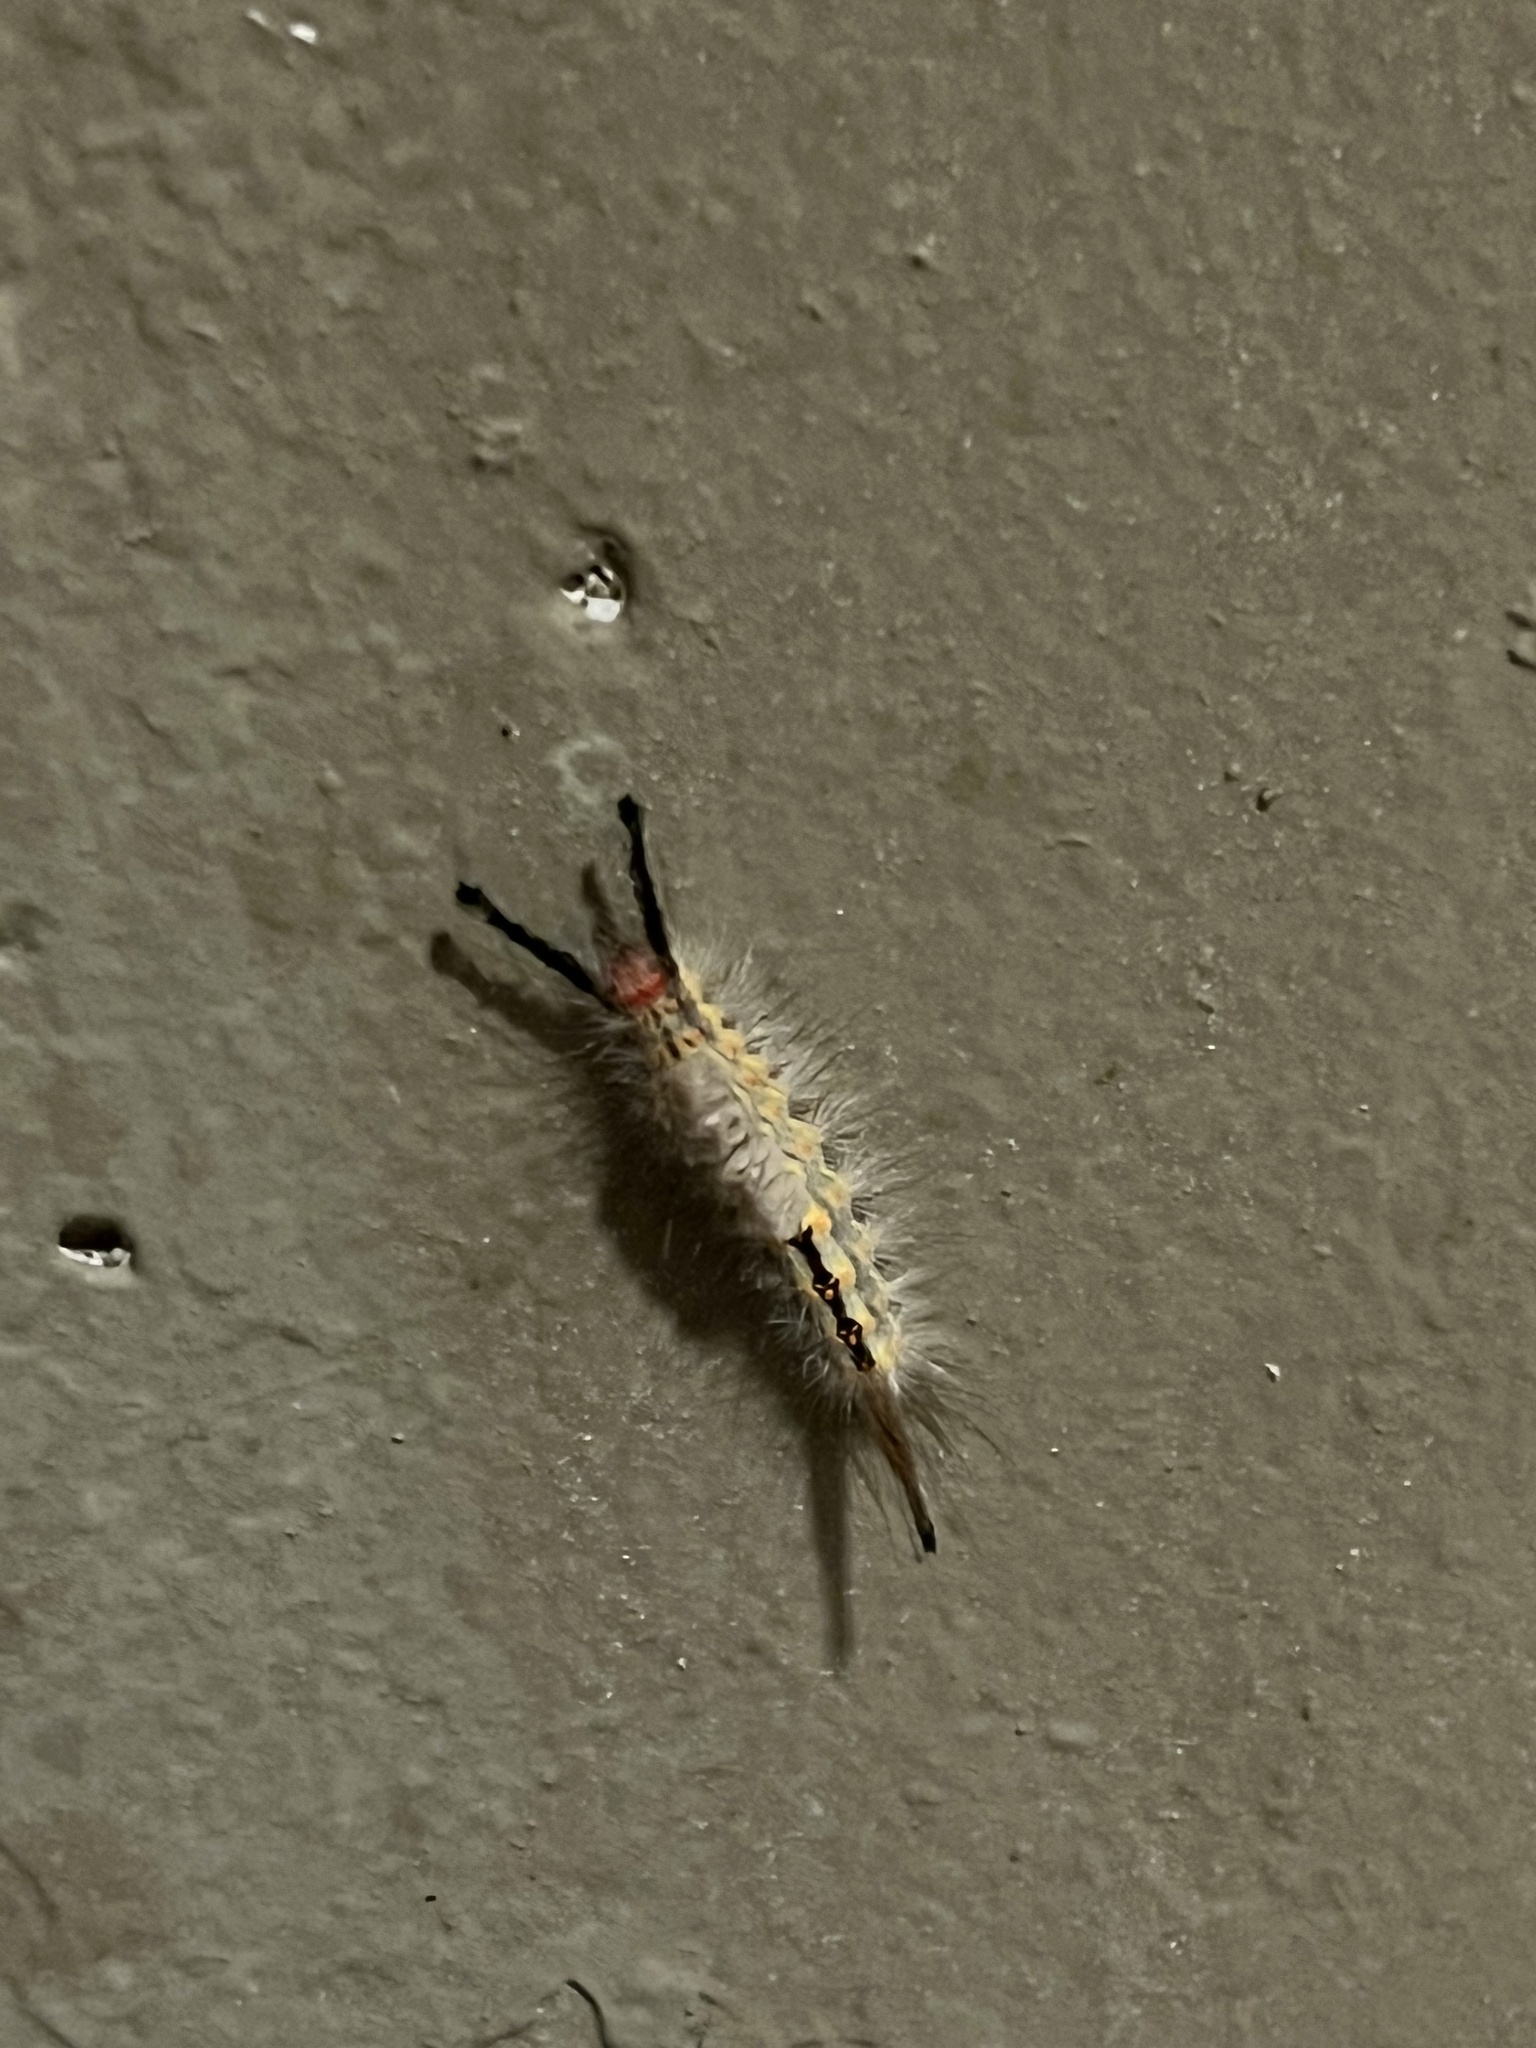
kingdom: Animalia
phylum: Arthropoda
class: Insecta
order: Lepidoptera
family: Erebidae
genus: Orgyia
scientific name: Orgyia detrita
